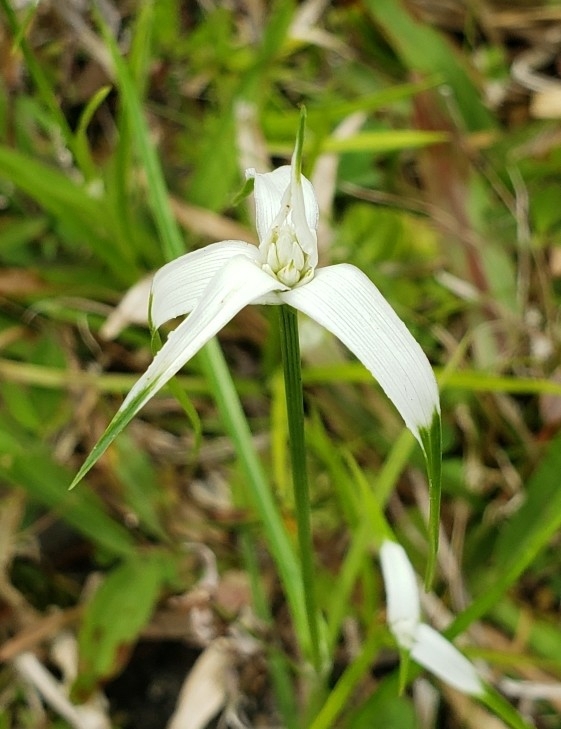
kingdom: Plantae
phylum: Tracheophyta
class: Liliopsida
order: Poales
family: Cyperaceae
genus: Rhynchospora
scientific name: Rhynchospora colorata
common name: Star sedge
